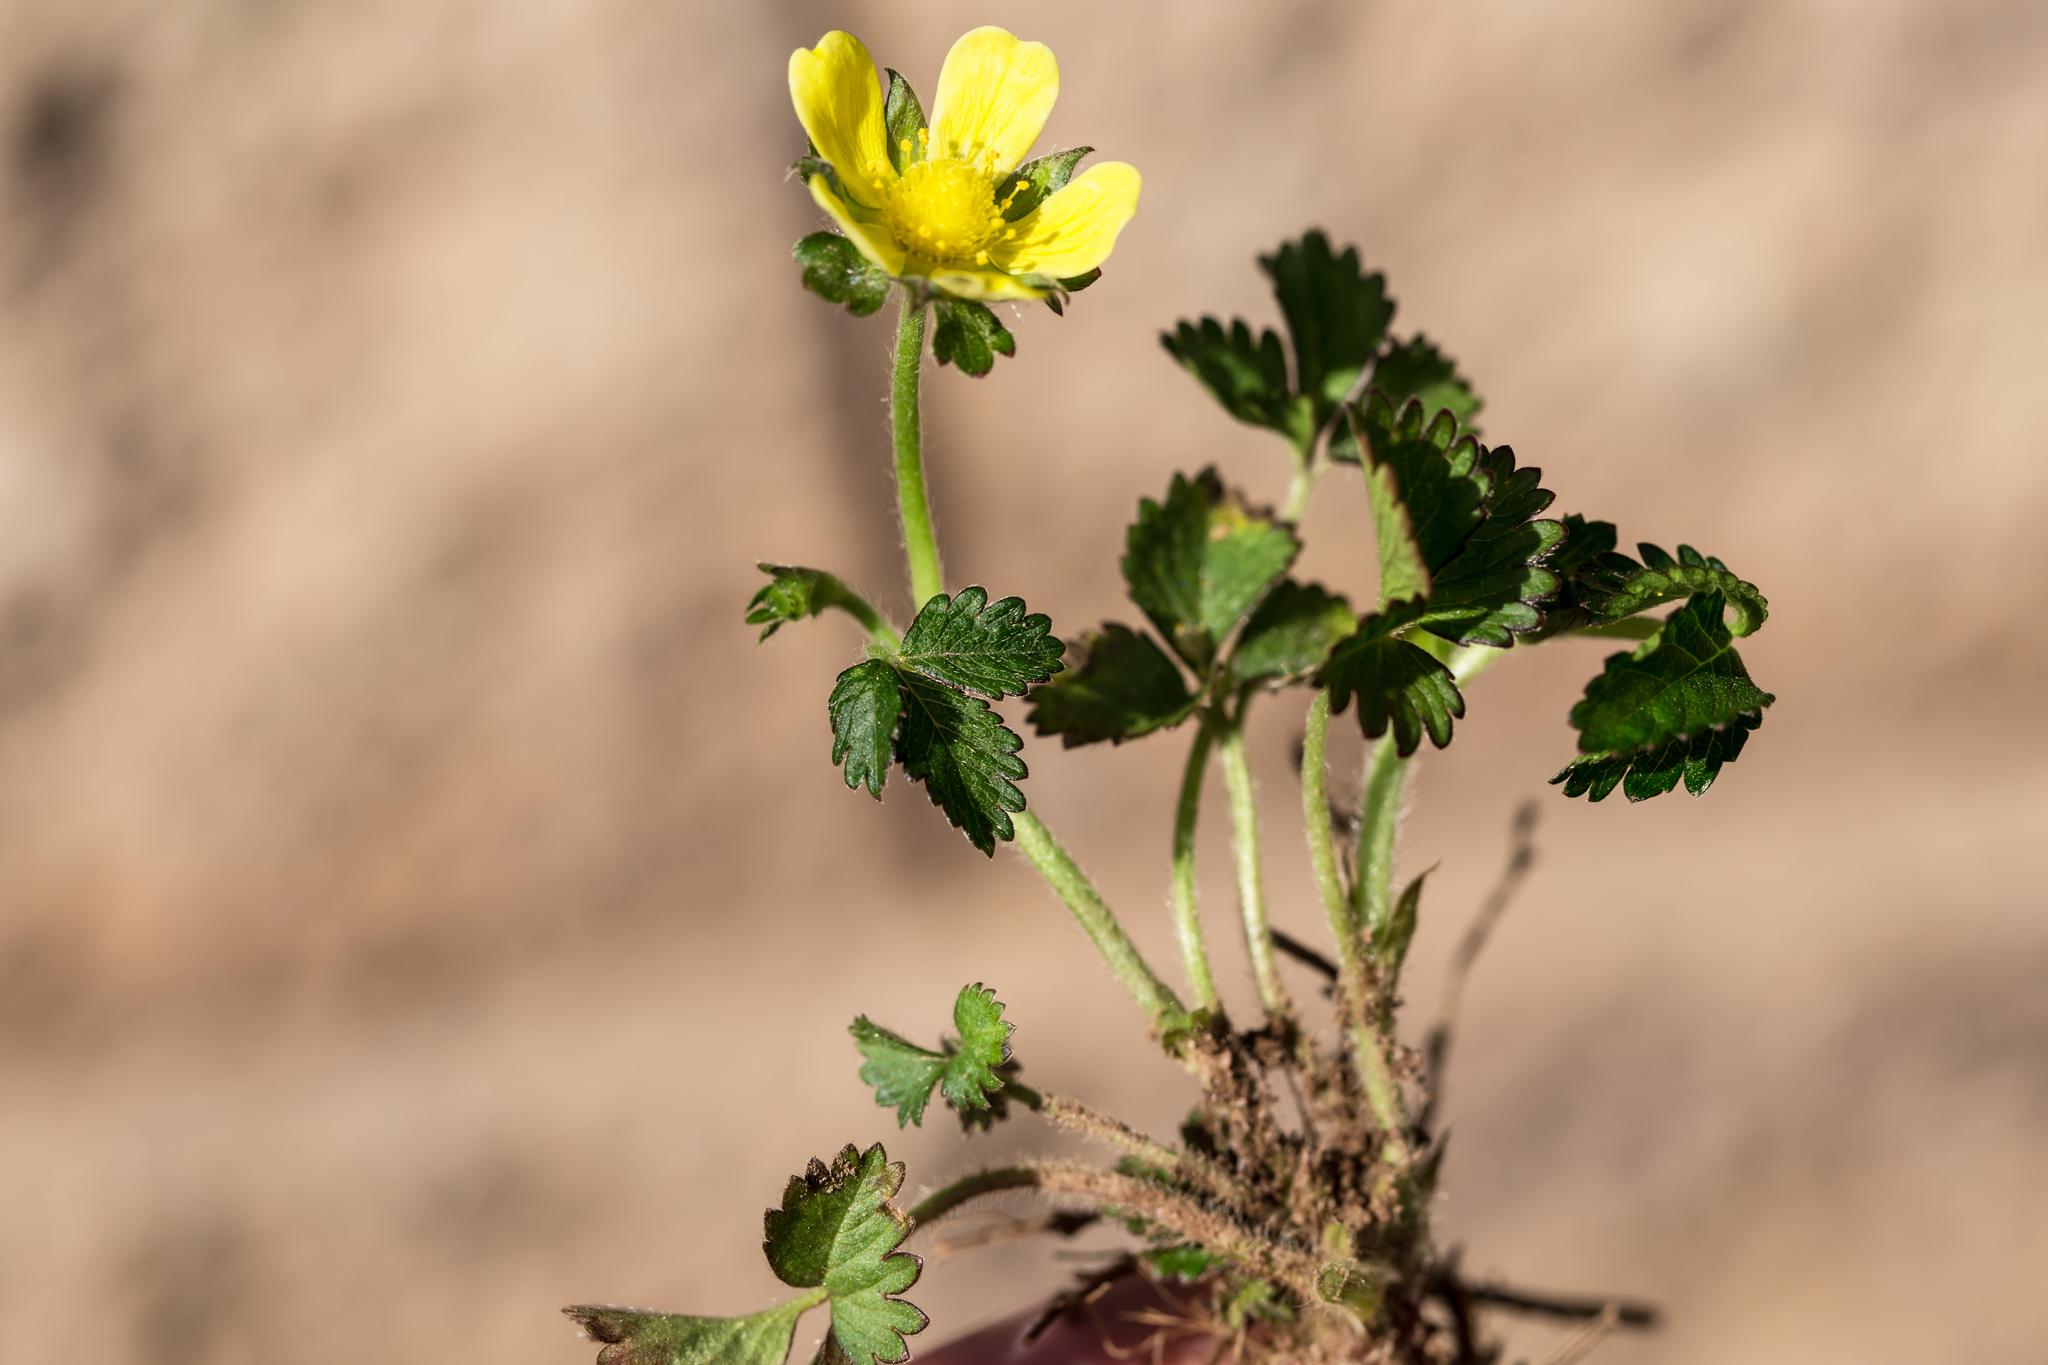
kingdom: Plantae
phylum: Tracheophyta
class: Magnoliopsida
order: Rosales
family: Rosaceae
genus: Potentilla
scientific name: Potentilla indica
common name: Yellow-flowered strawberry
